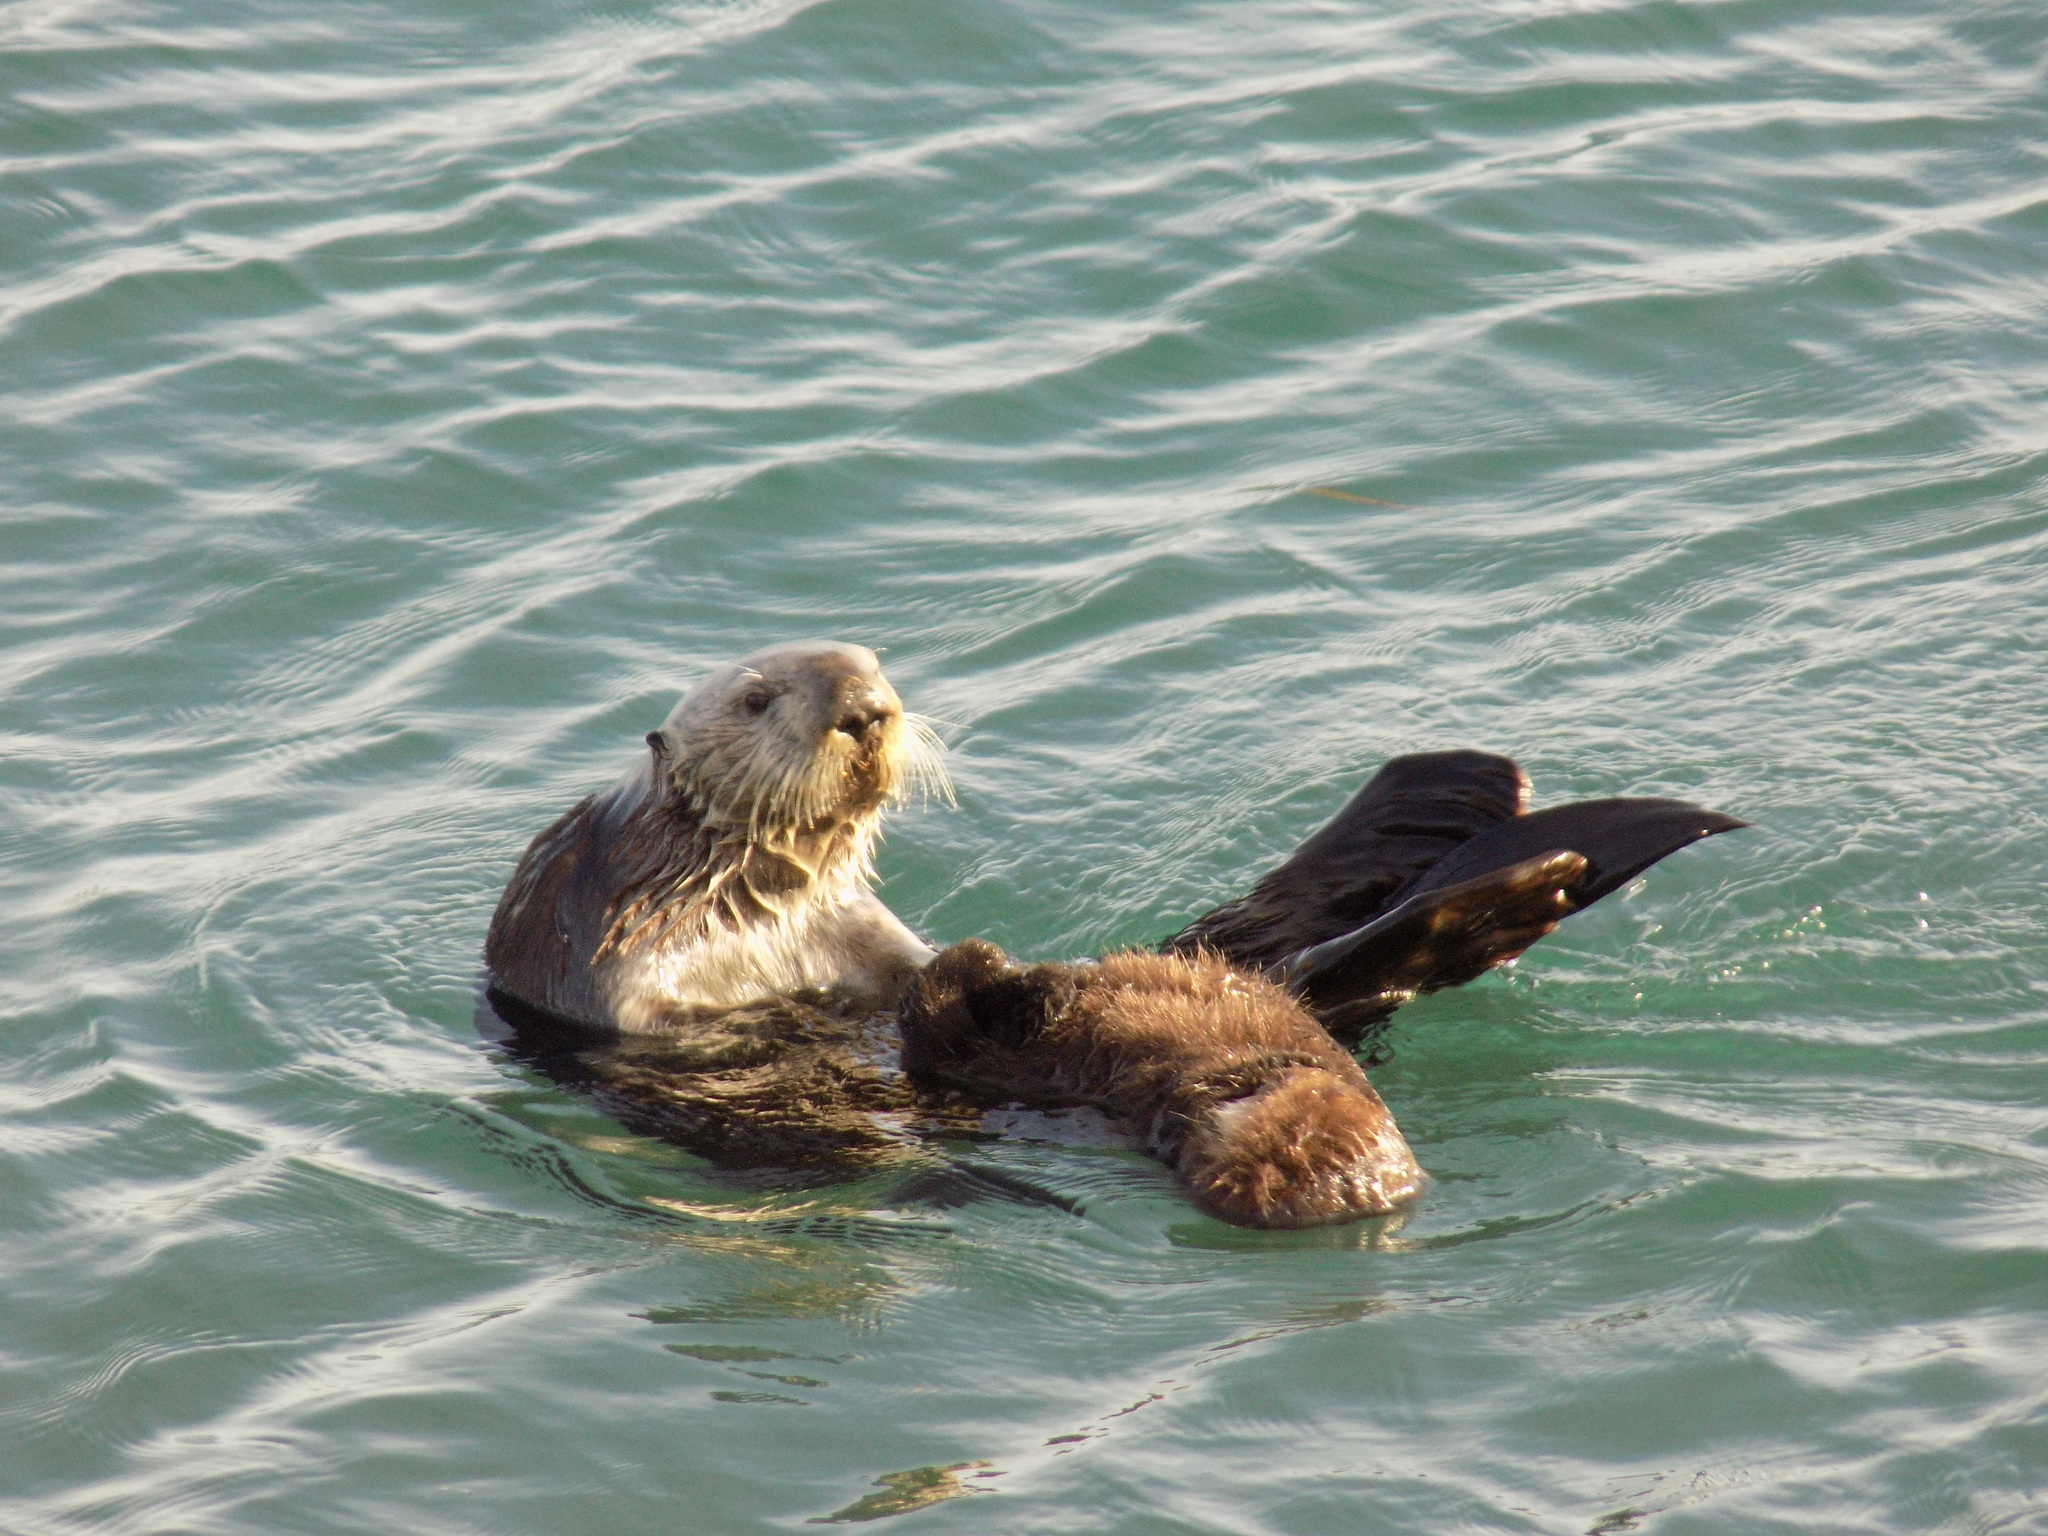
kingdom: Animalia
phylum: Chordata
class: Mammalia
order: Carnivora
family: Mustelidae
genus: Enhydra
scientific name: Enhydra lutris
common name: Sea otter
